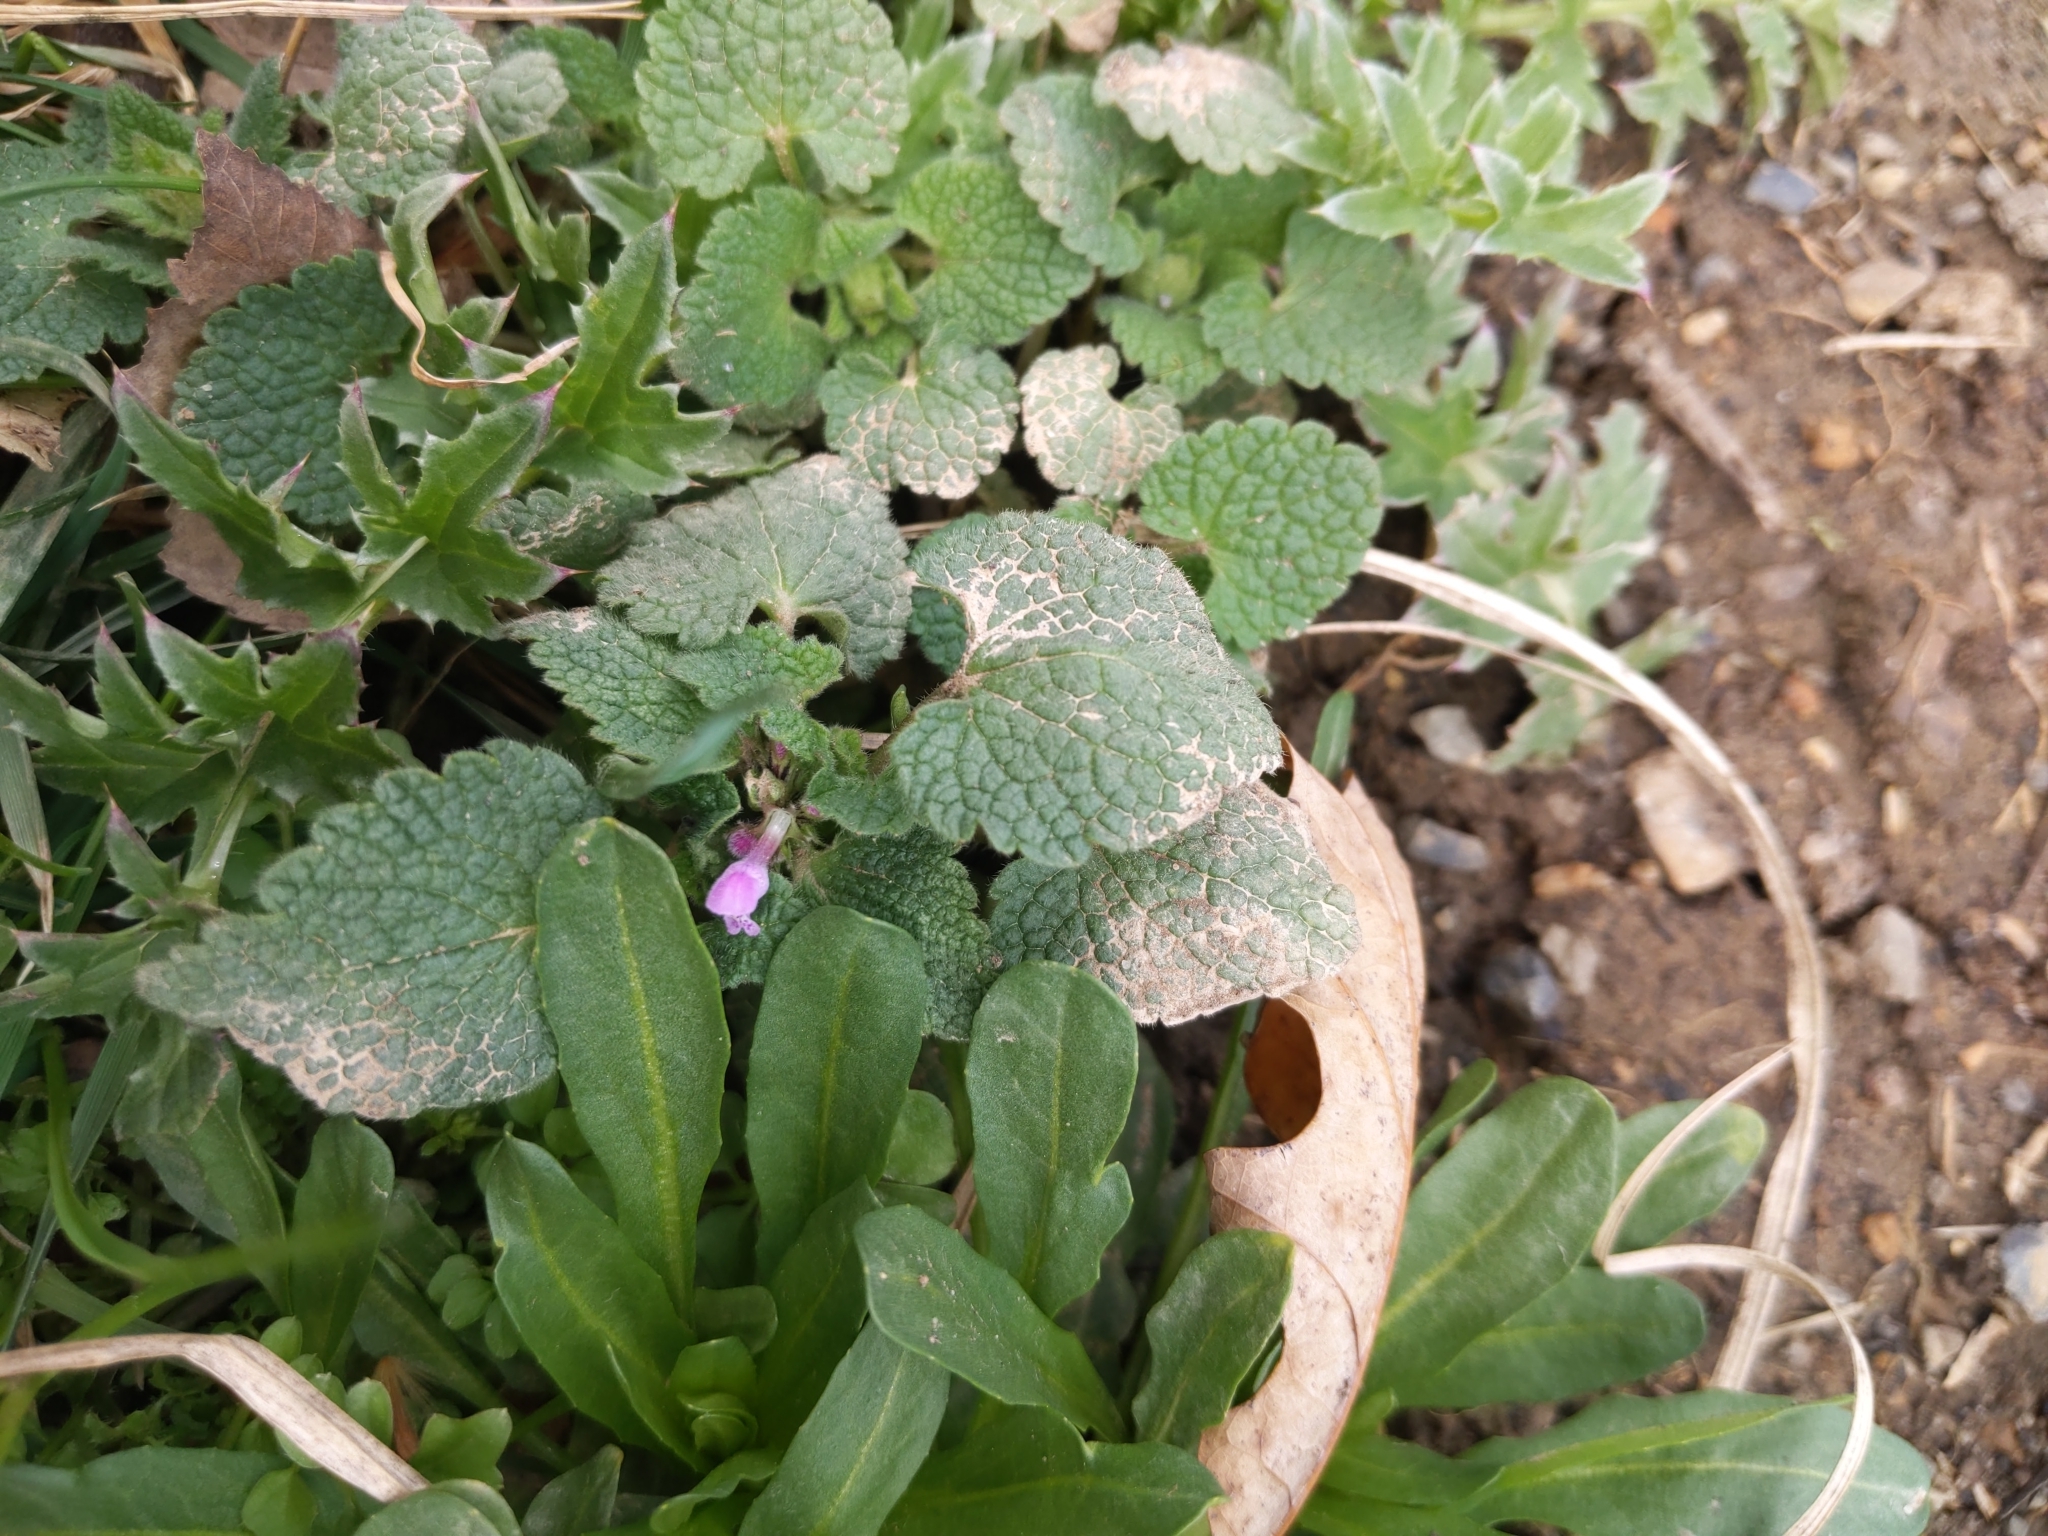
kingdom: Plantae
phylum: Tracheophyta
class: Magnoliopsida
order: Lamiales
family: Lamiaceae
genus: Lamium
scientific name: Lamium purpureum
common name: Red dead-nettle
